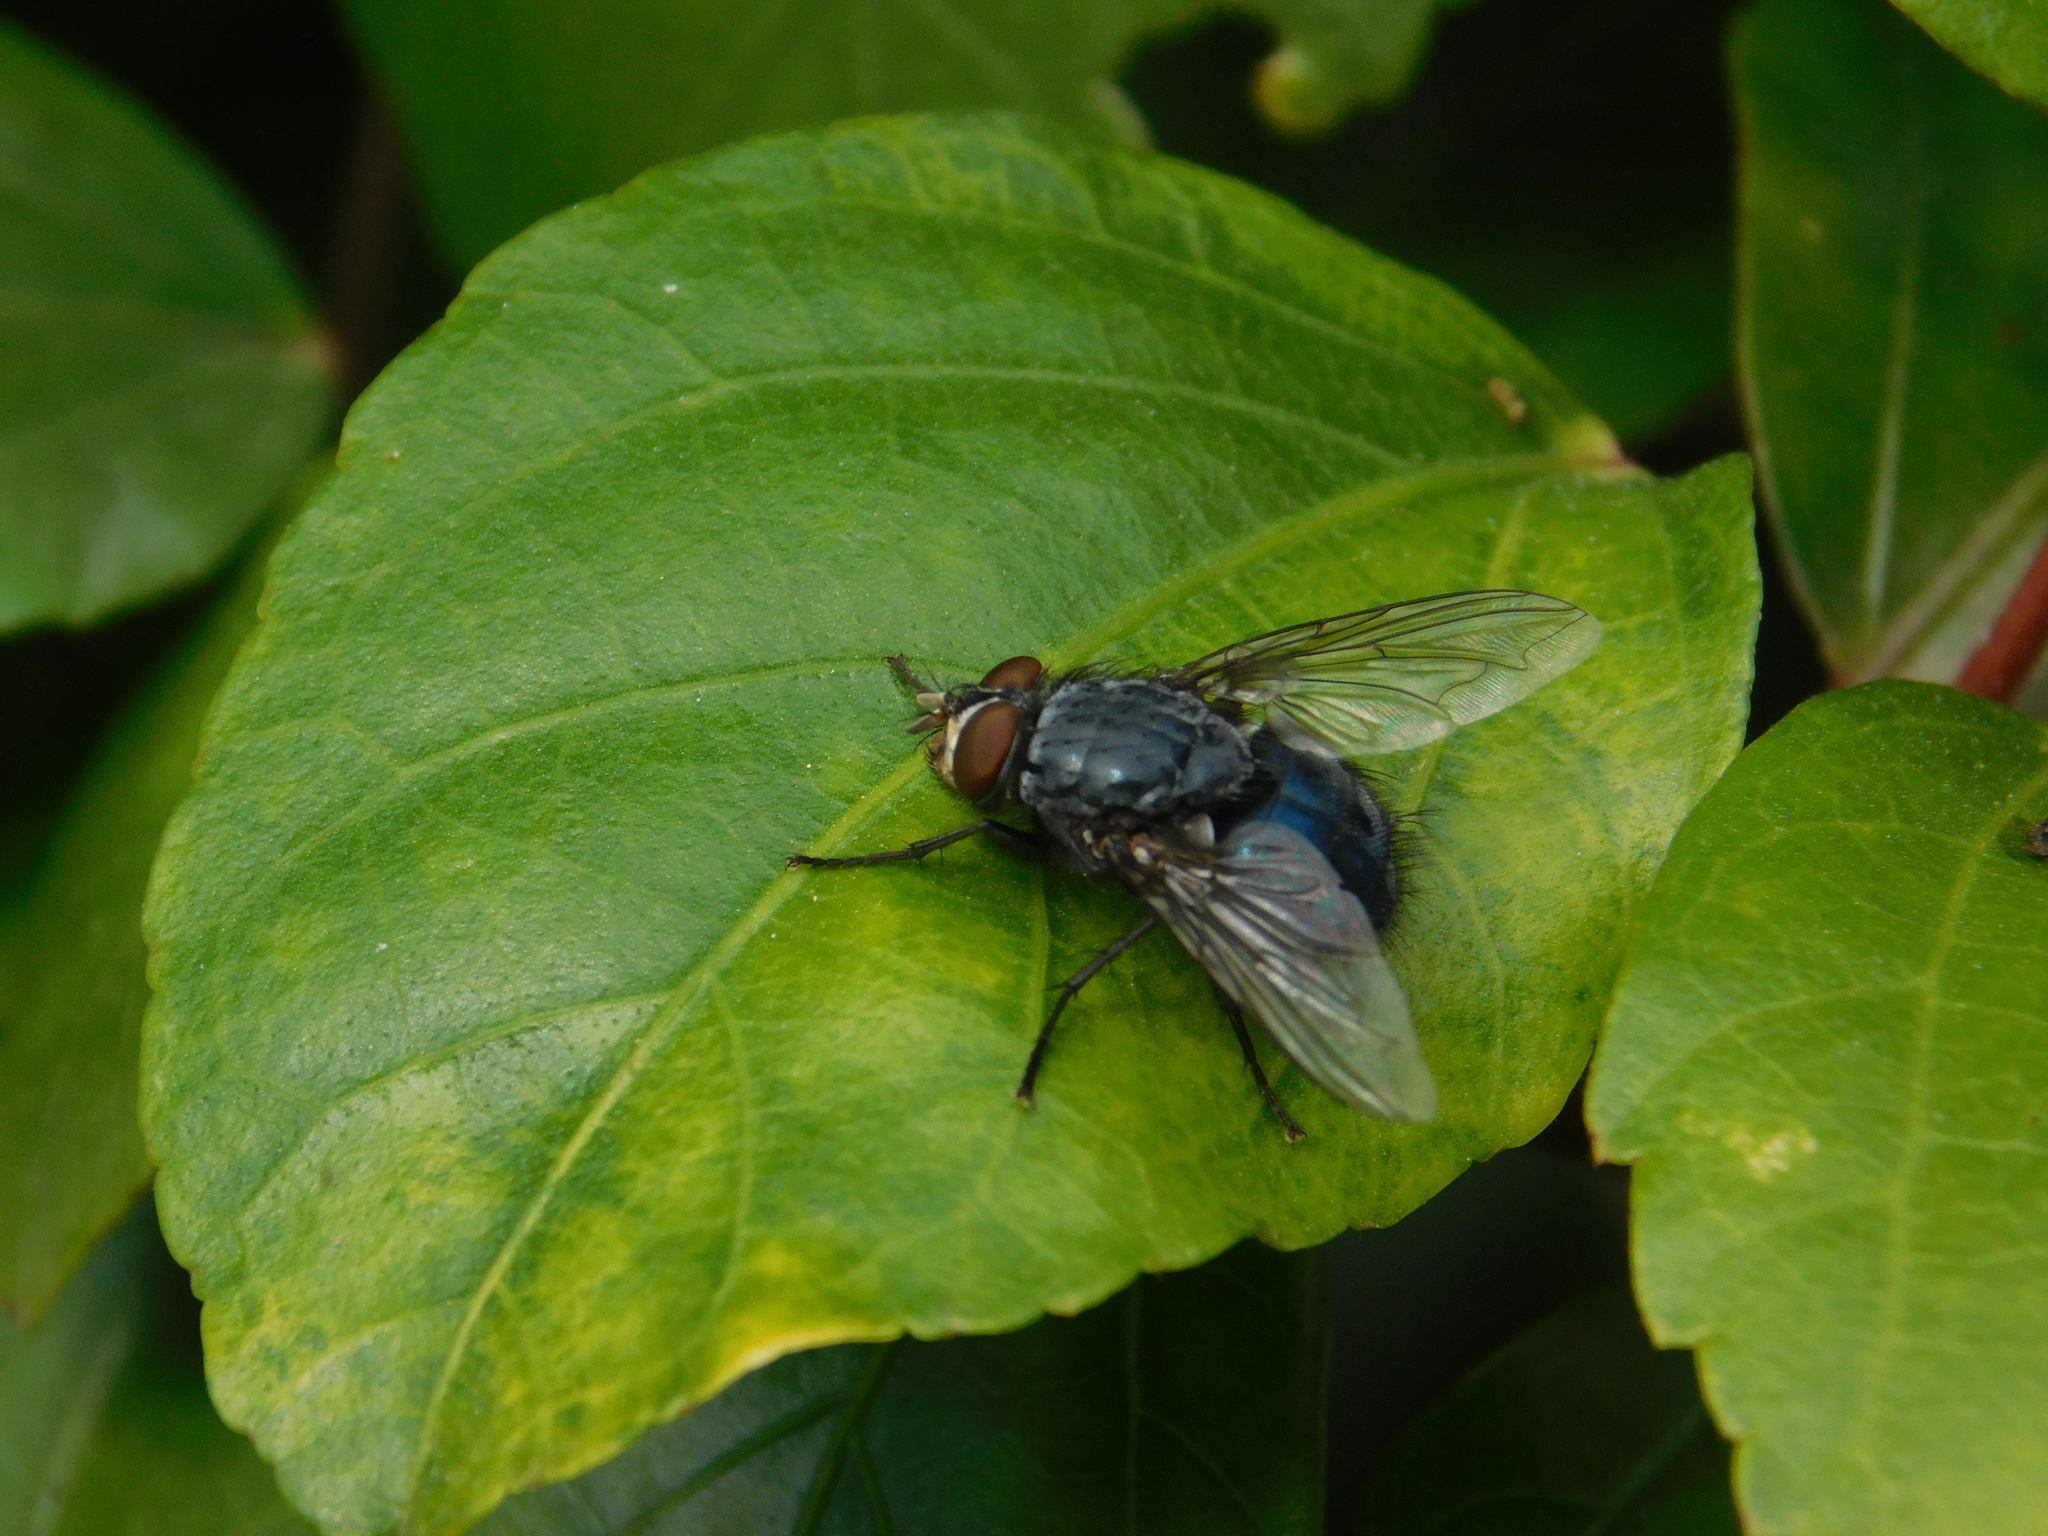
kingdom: Animalia
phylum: Arthropoda
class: Insecta
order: Diptera
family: Calliphoridae
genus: Calliphora
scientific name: Calliphora vicina
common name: Common blow flie
